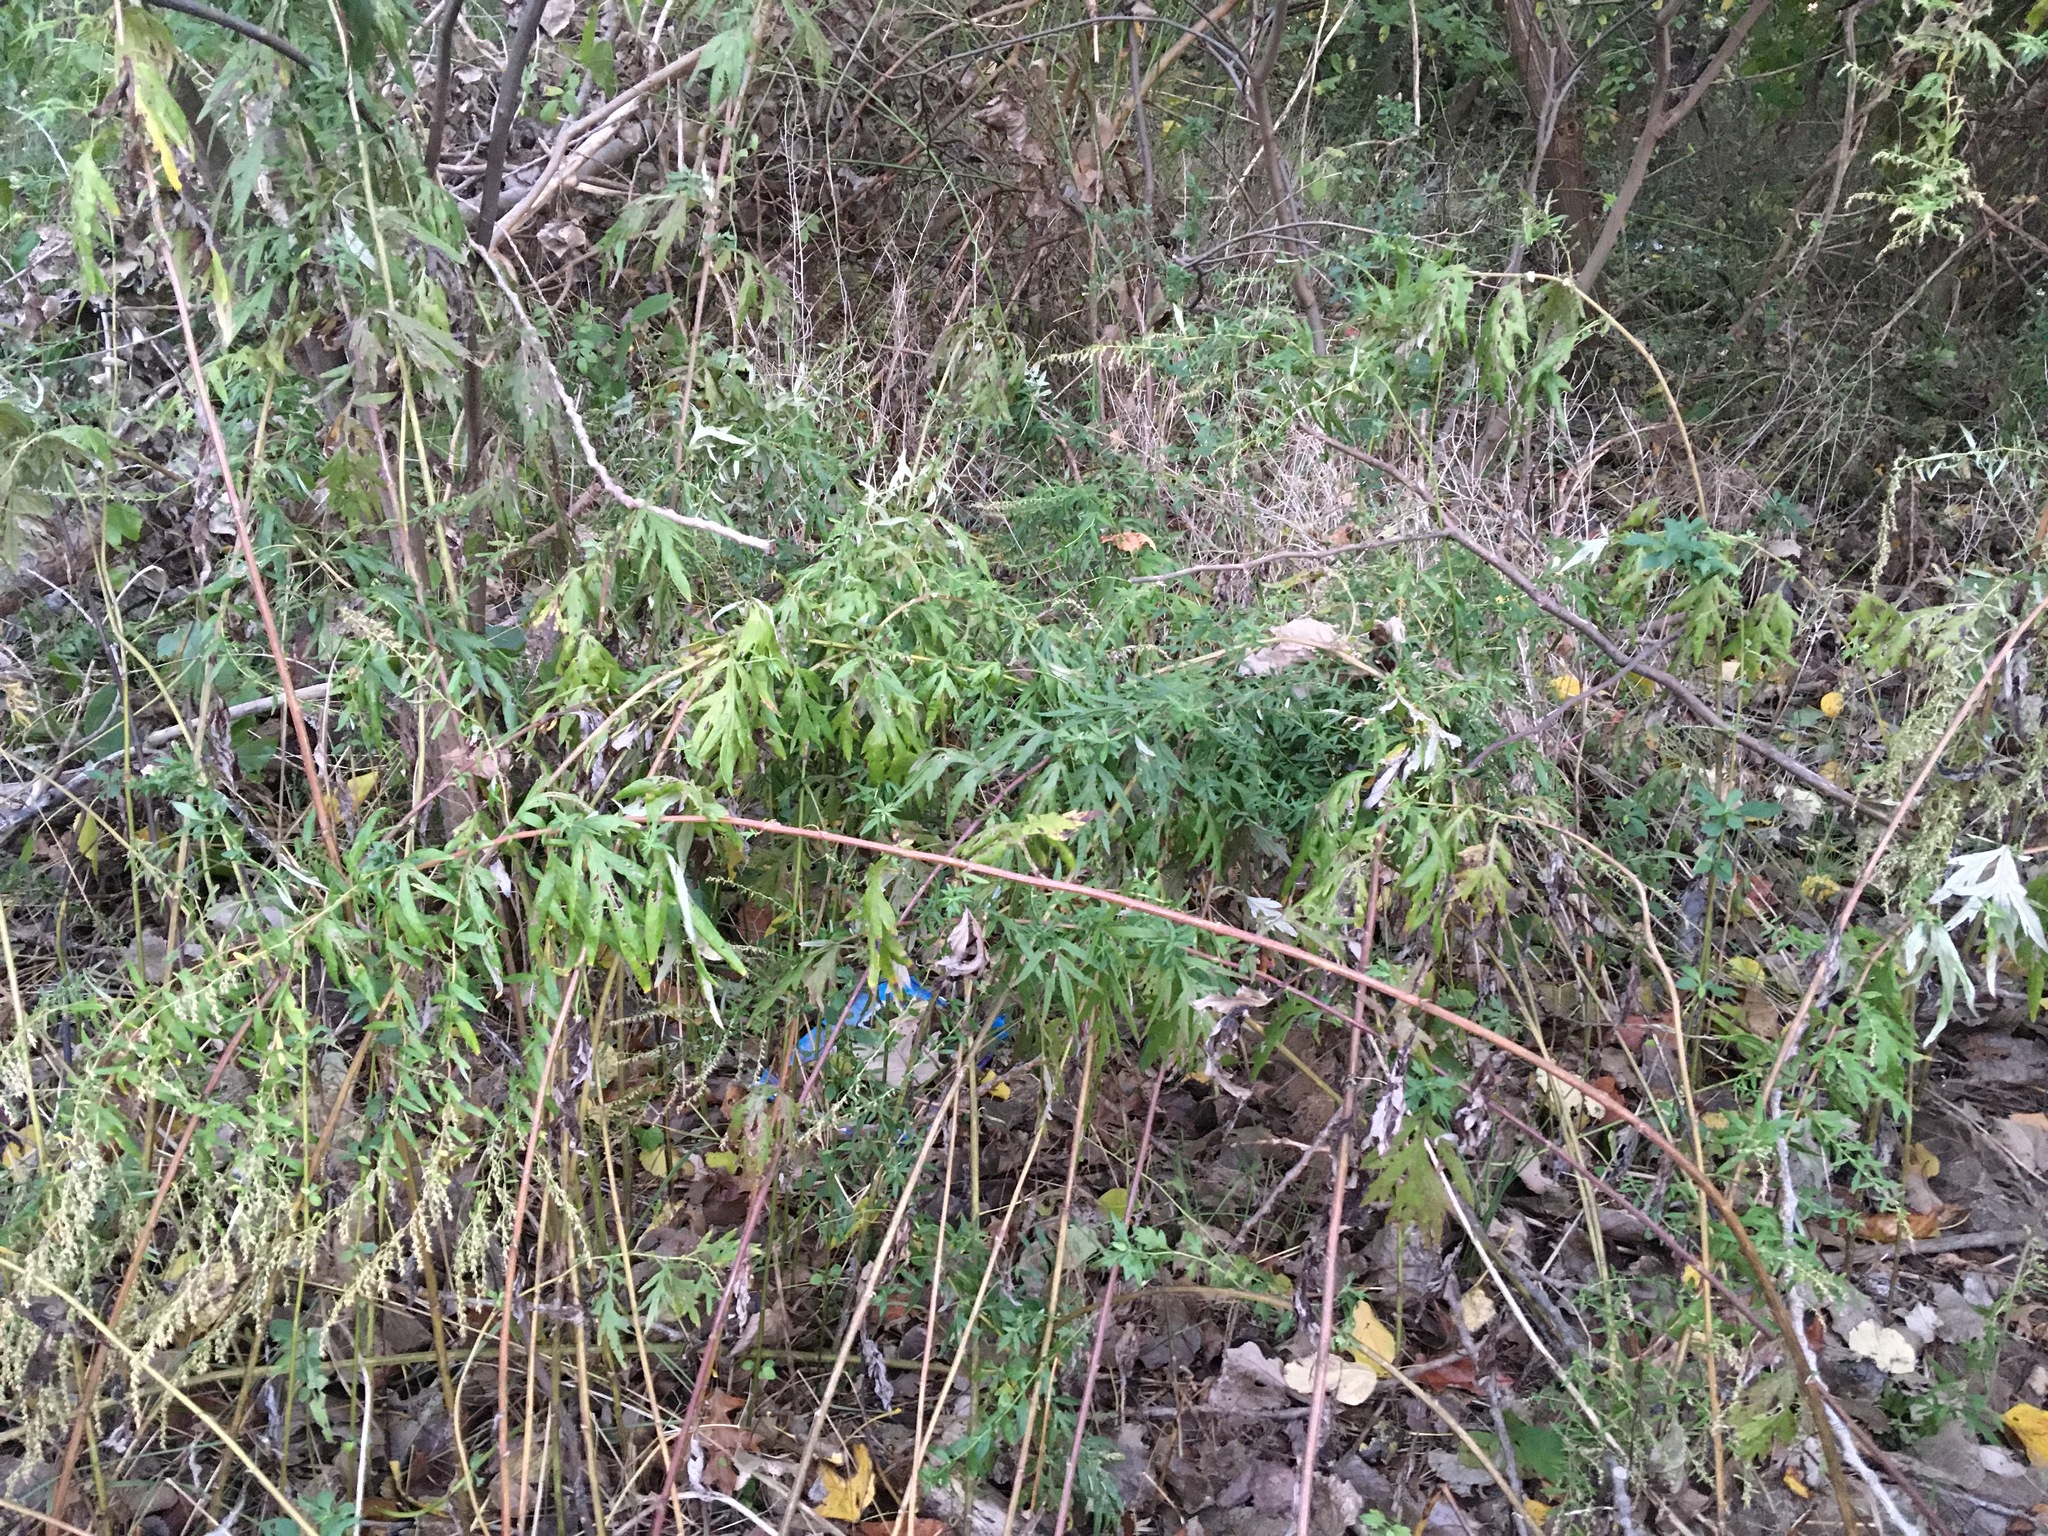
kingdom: Plantae
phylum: Tracheophyta
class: Magnoliopsida
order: Asterales
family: Asteraceae
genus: Artemisia
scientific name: Artemisia vulgaris
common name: Mugwort
